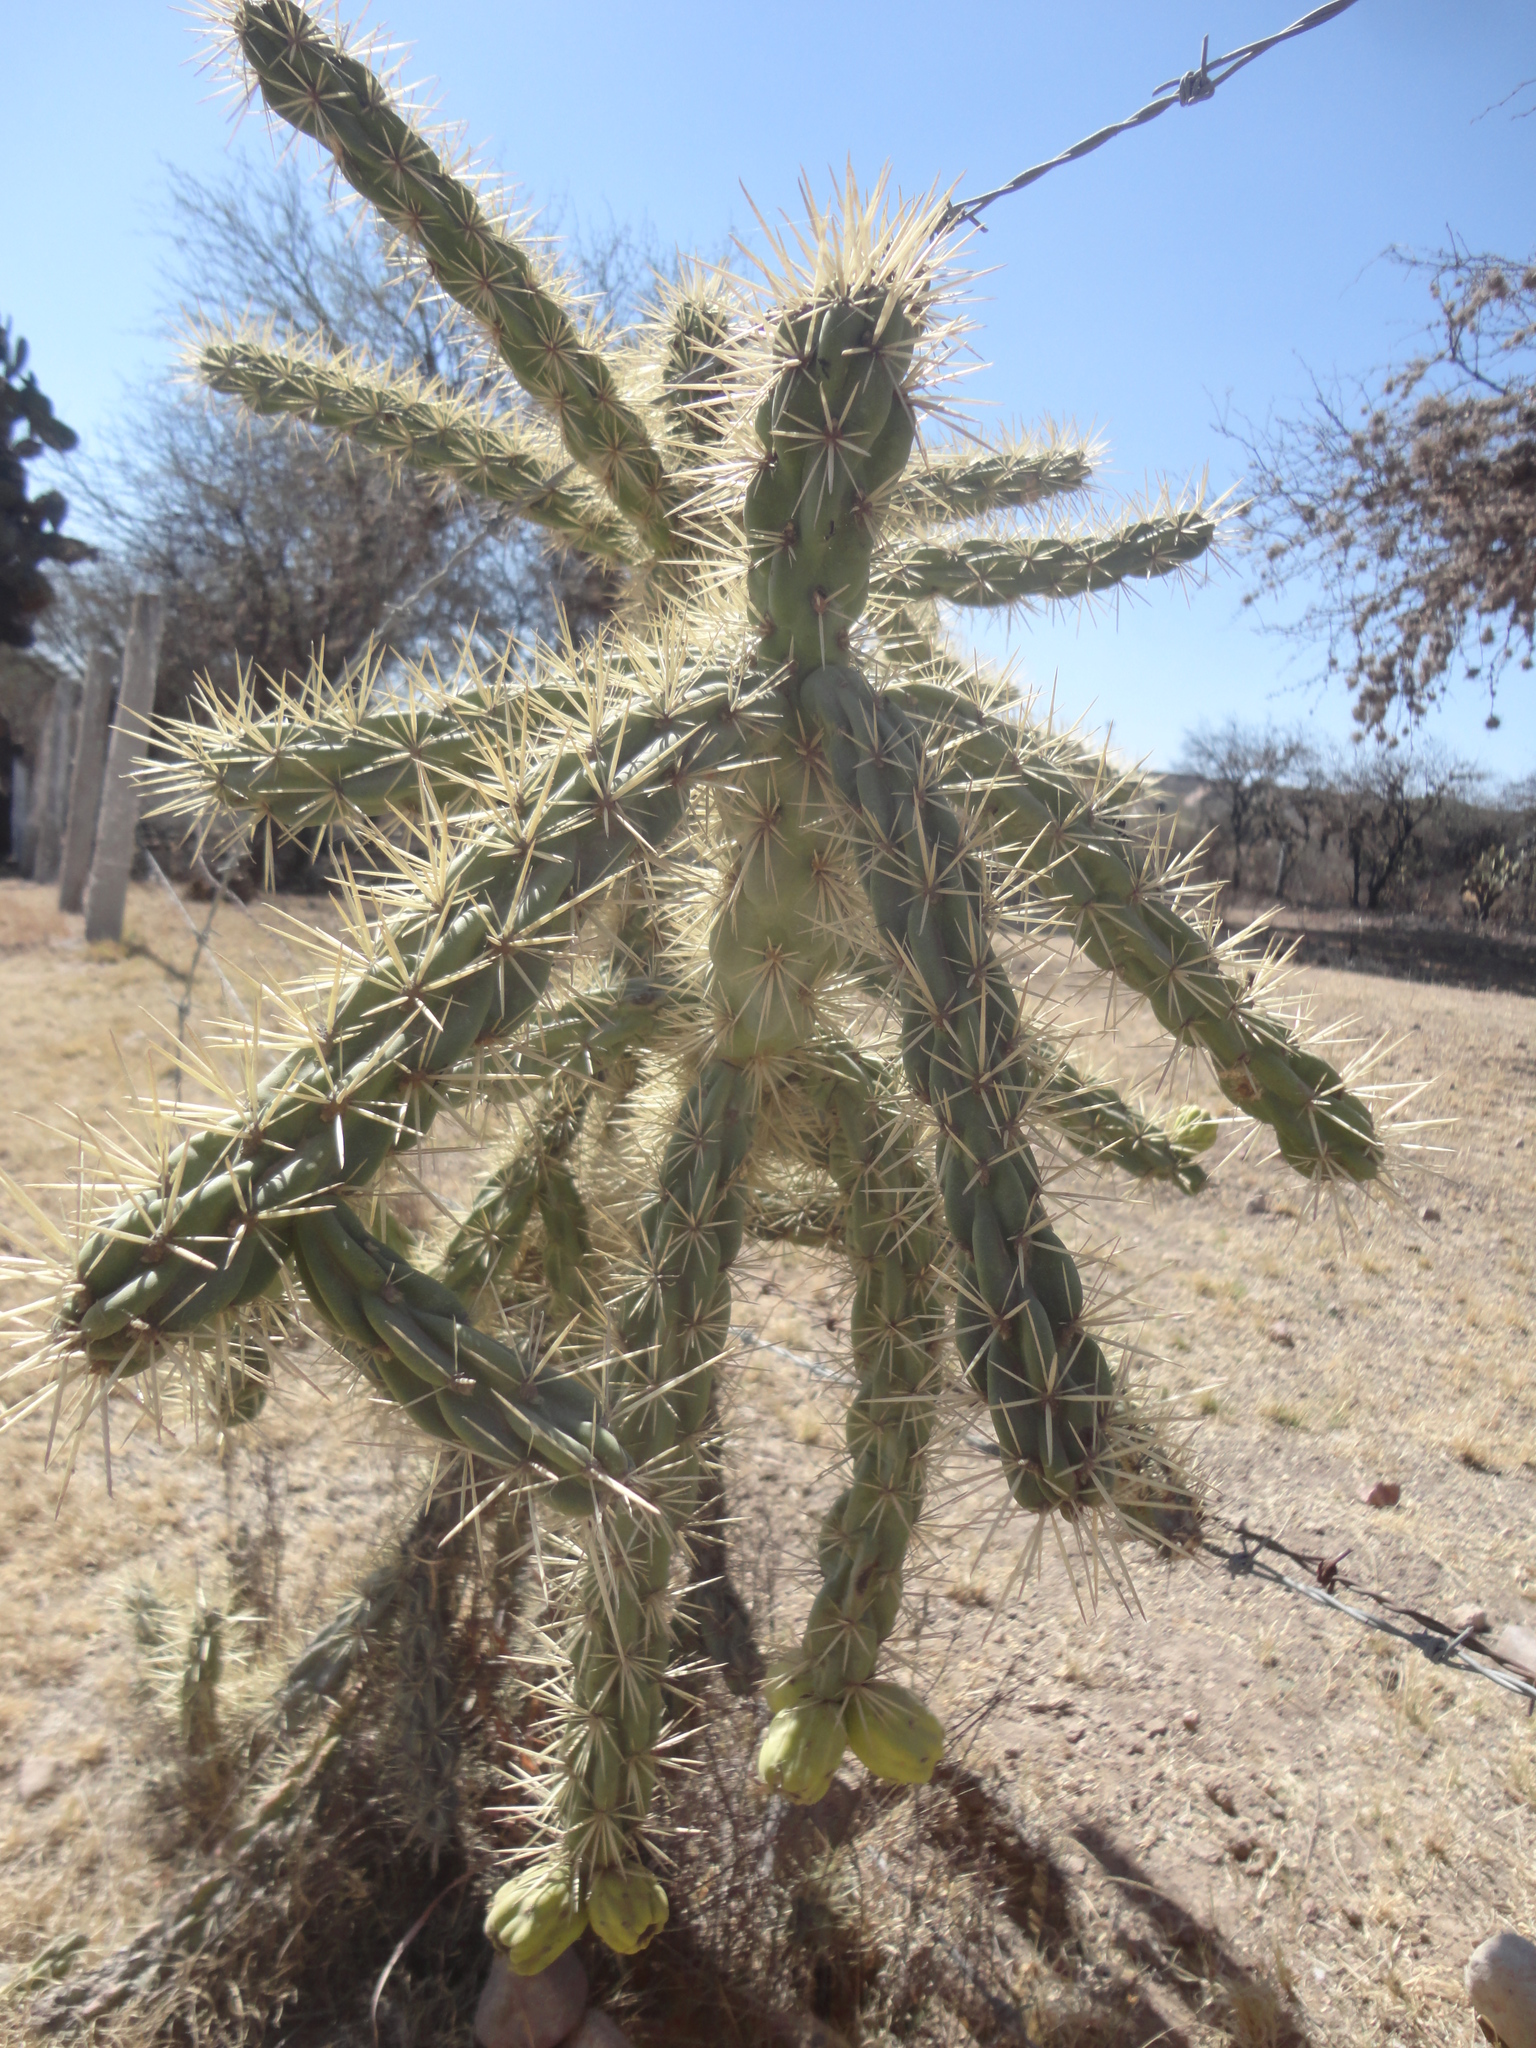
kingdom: Plantae
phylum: Tracheophyta
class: Magnoliopsida
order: Caryophyllales
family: Cactaceae
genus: Cylindropuntia
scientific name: Cylindropuntia imbricata
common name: Candelabrum cactus
